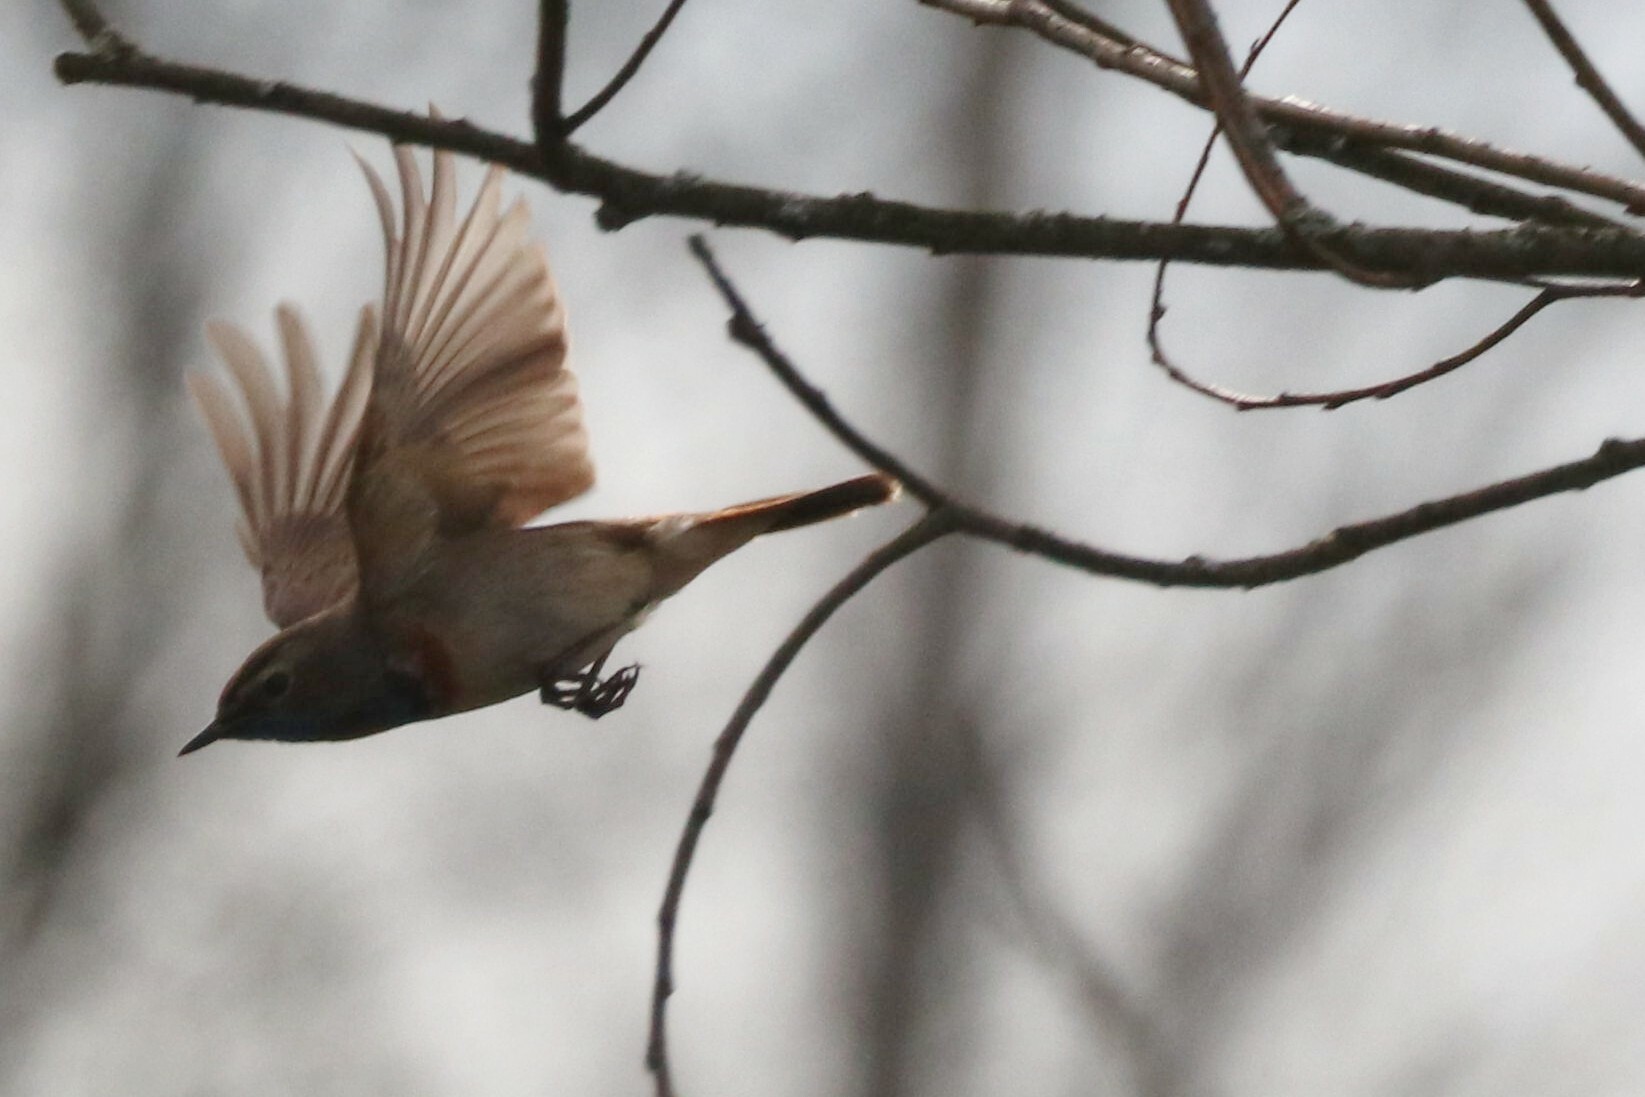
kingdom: Animalia
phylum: Chordata
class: Aves
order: Passeriformes
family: Muscicapidae
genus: Luscinia
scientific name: Luscinia svecica
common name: Bluethroat
